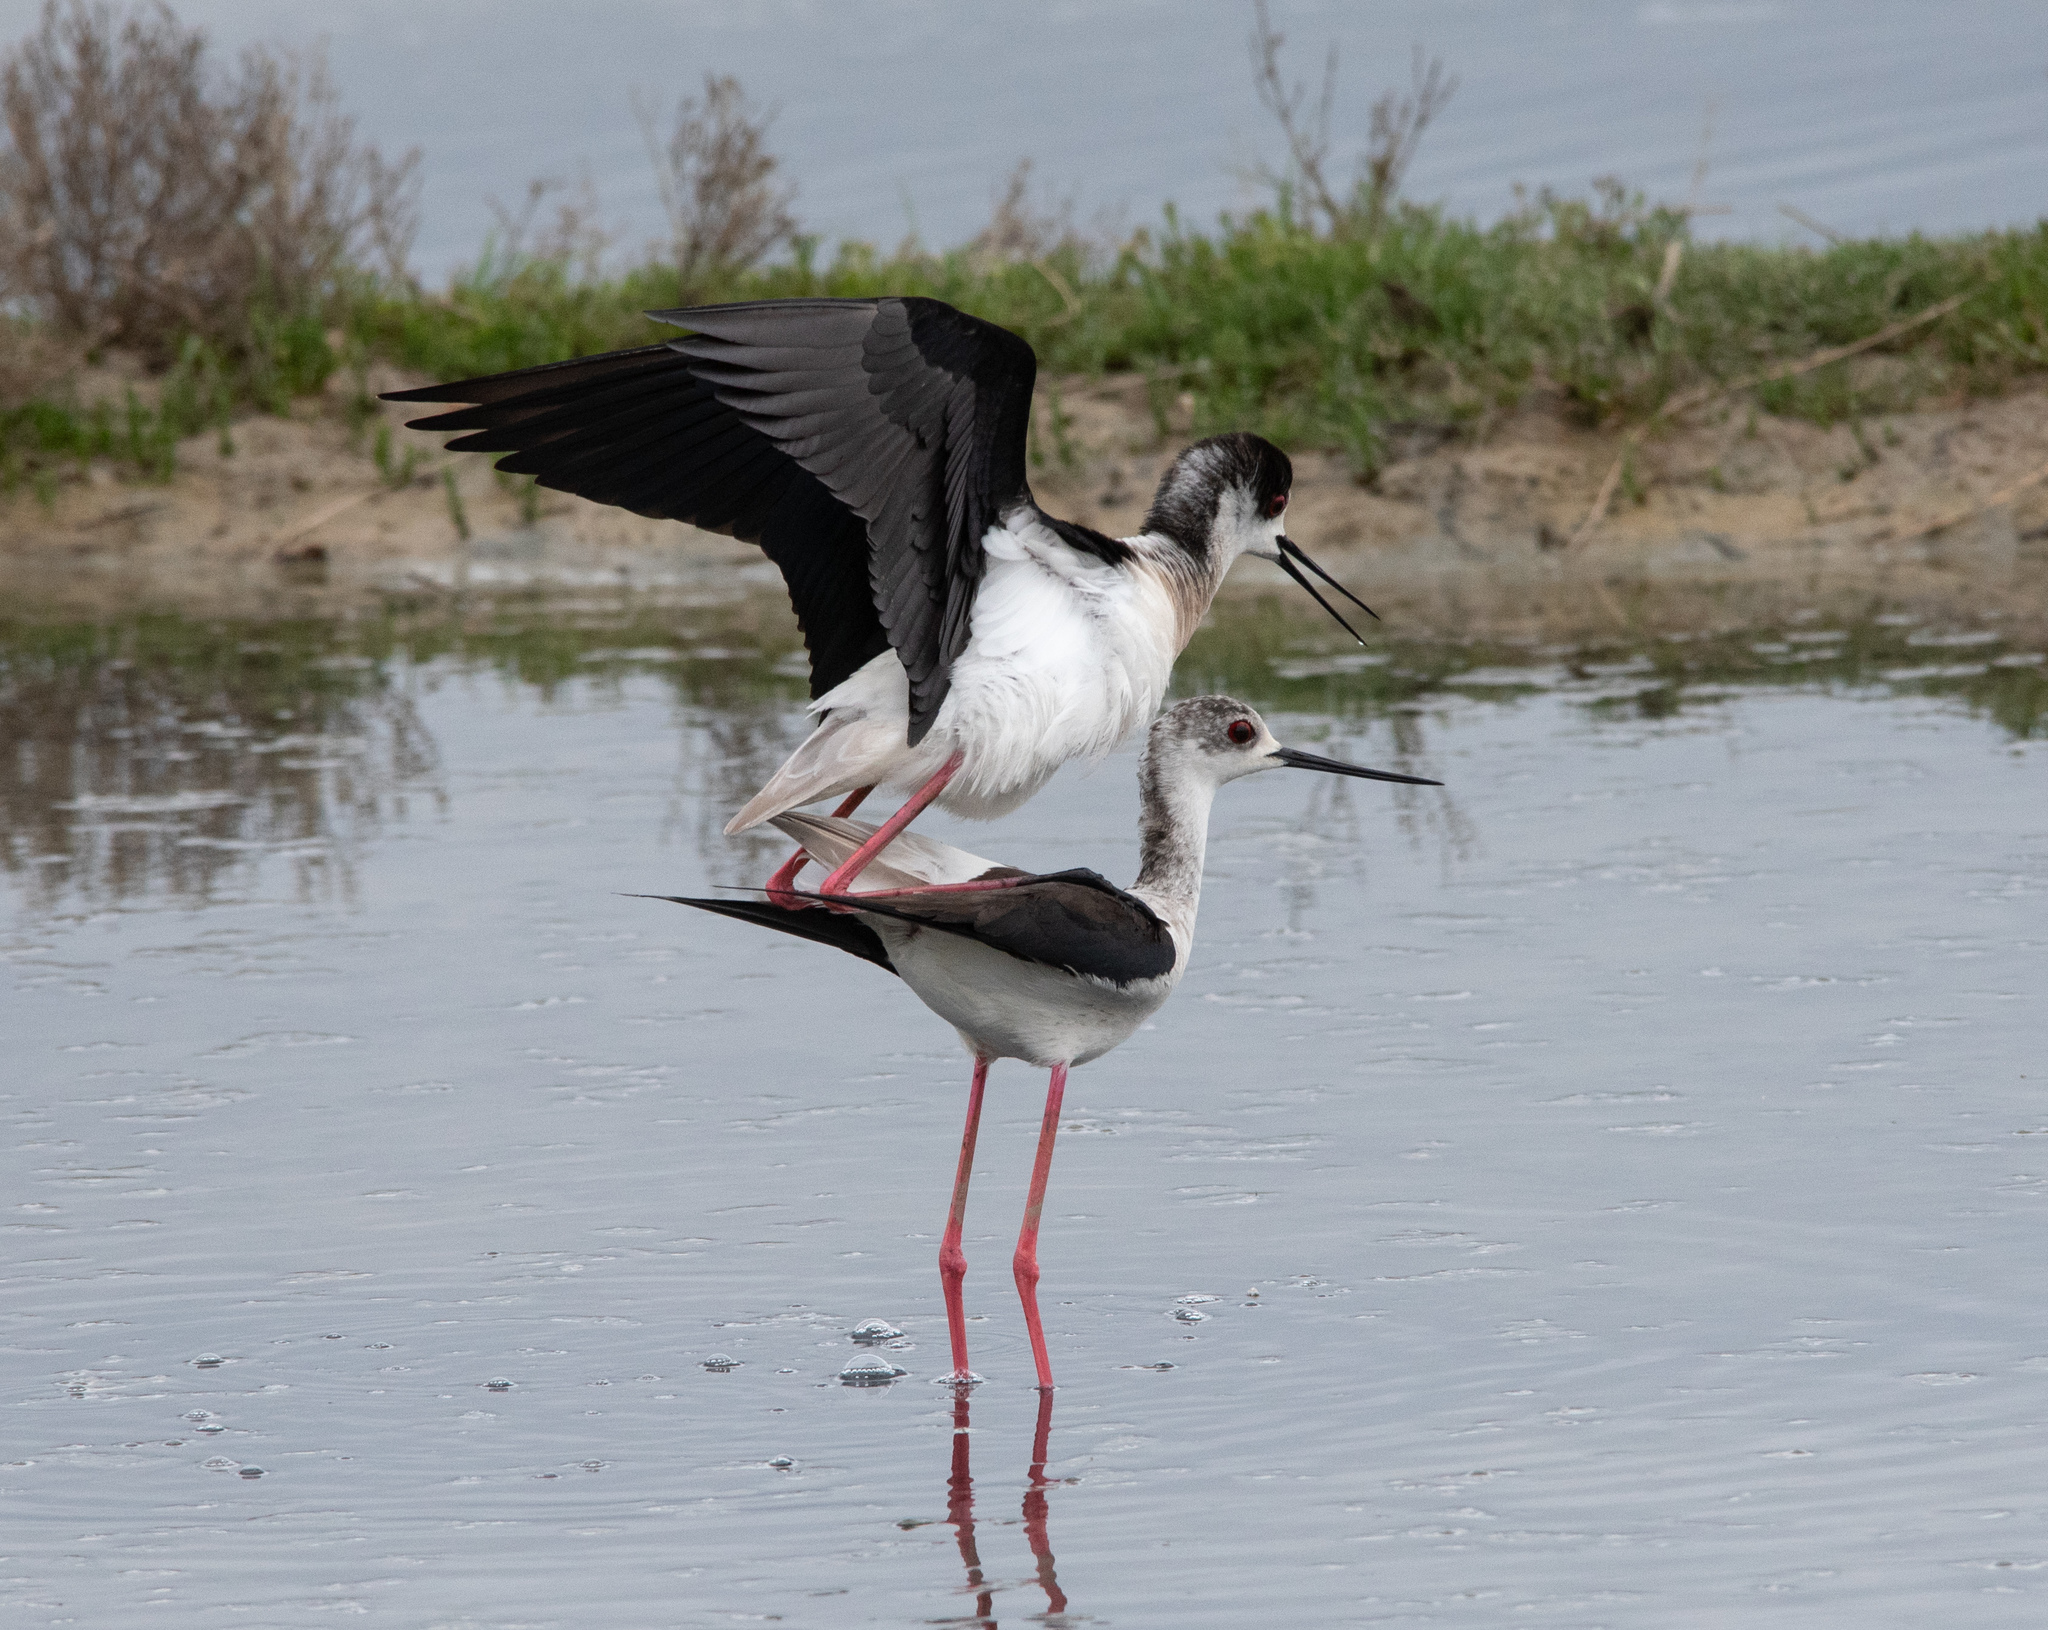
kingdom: Animalia
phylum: Chordata
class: Aves
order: Charadriiformes
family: Recurvirostridae
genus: Himantopus
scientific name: Himantopus himantopus
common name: Black-winged stilt
